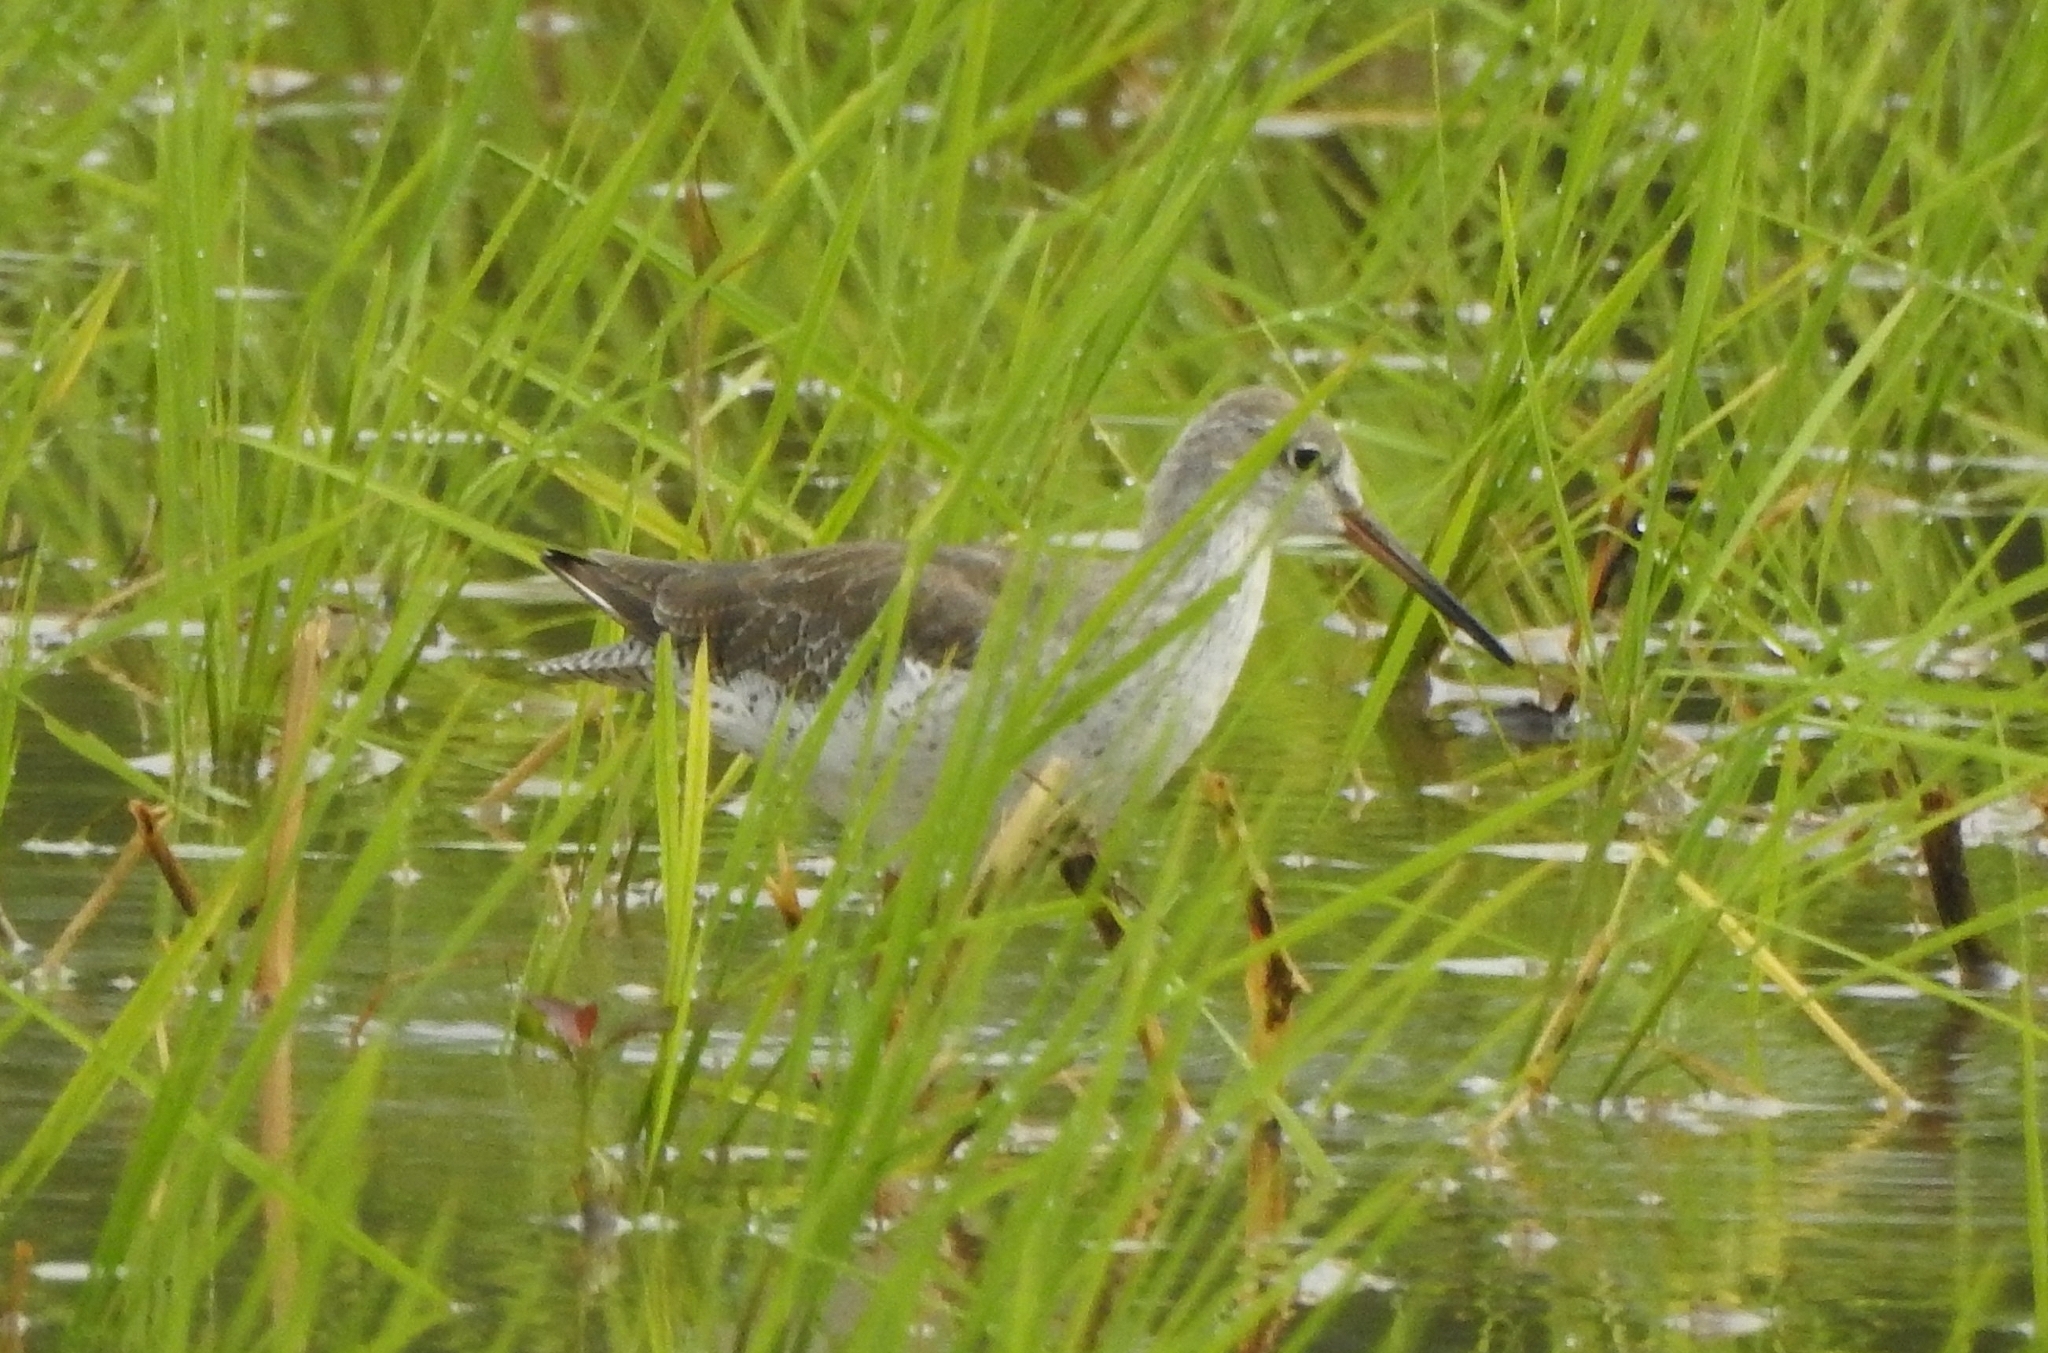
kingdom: Animalia
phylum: Chordata
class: Aves
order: Charadriiformes
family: Scolopacidae
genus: Tringa
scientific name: Tringa totanus
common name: Common redshank
